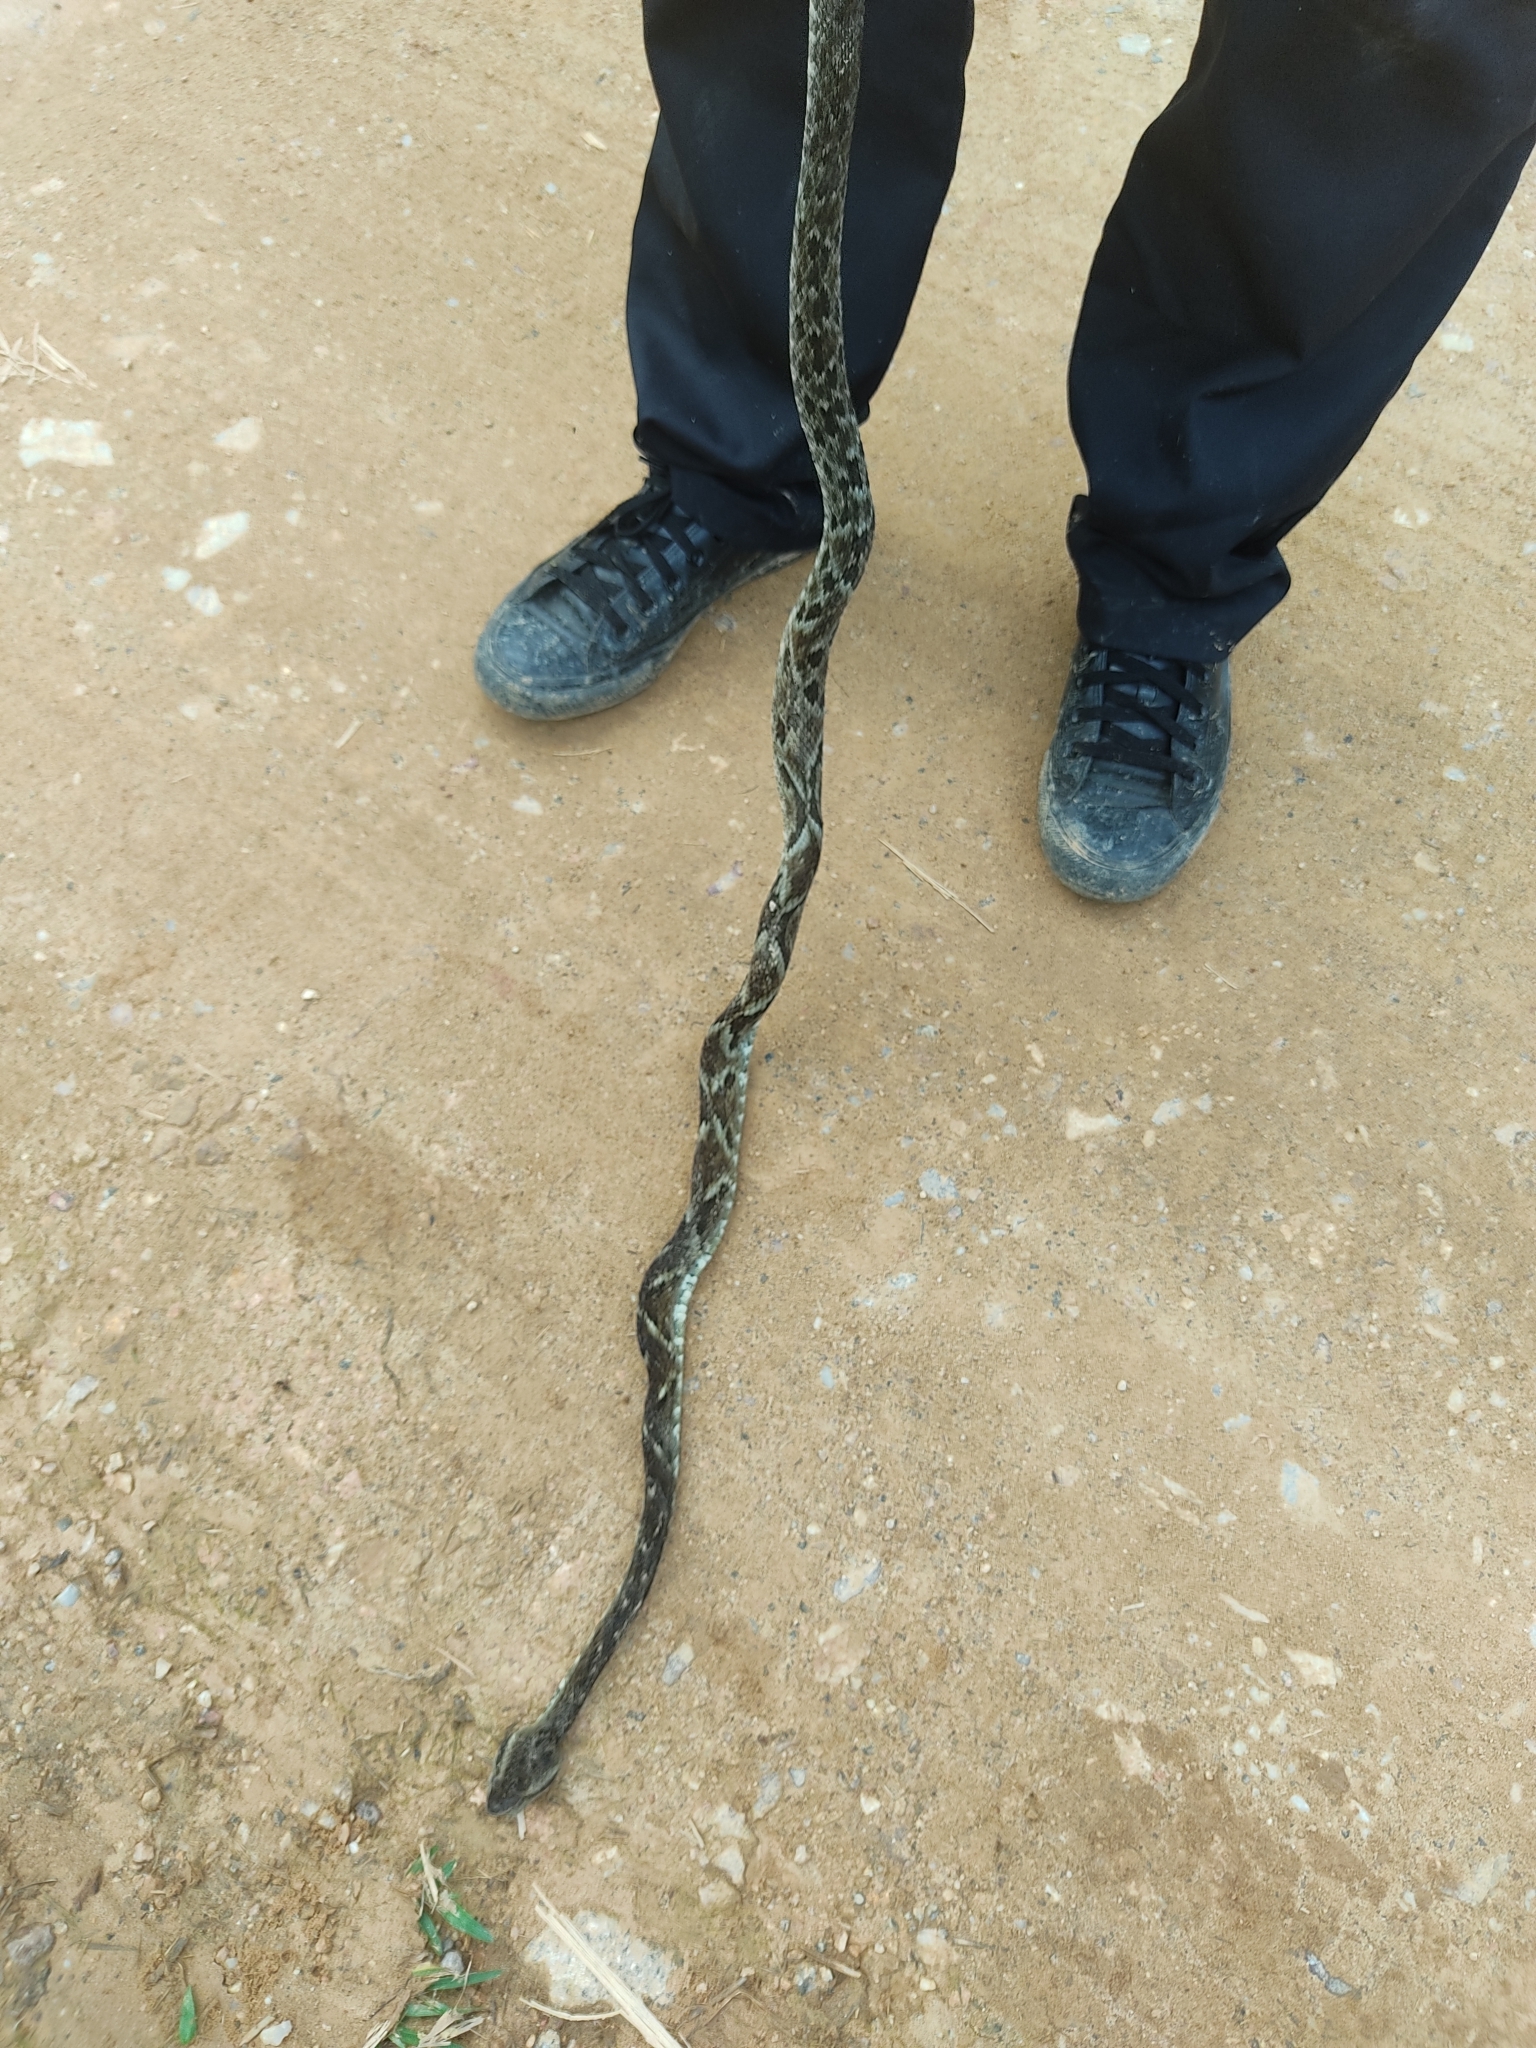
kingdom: Animalia
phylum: Chordata
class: Squamata
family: Viperidae
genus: Bothrops
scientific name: Bothrops jararaca
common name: Jararaca
